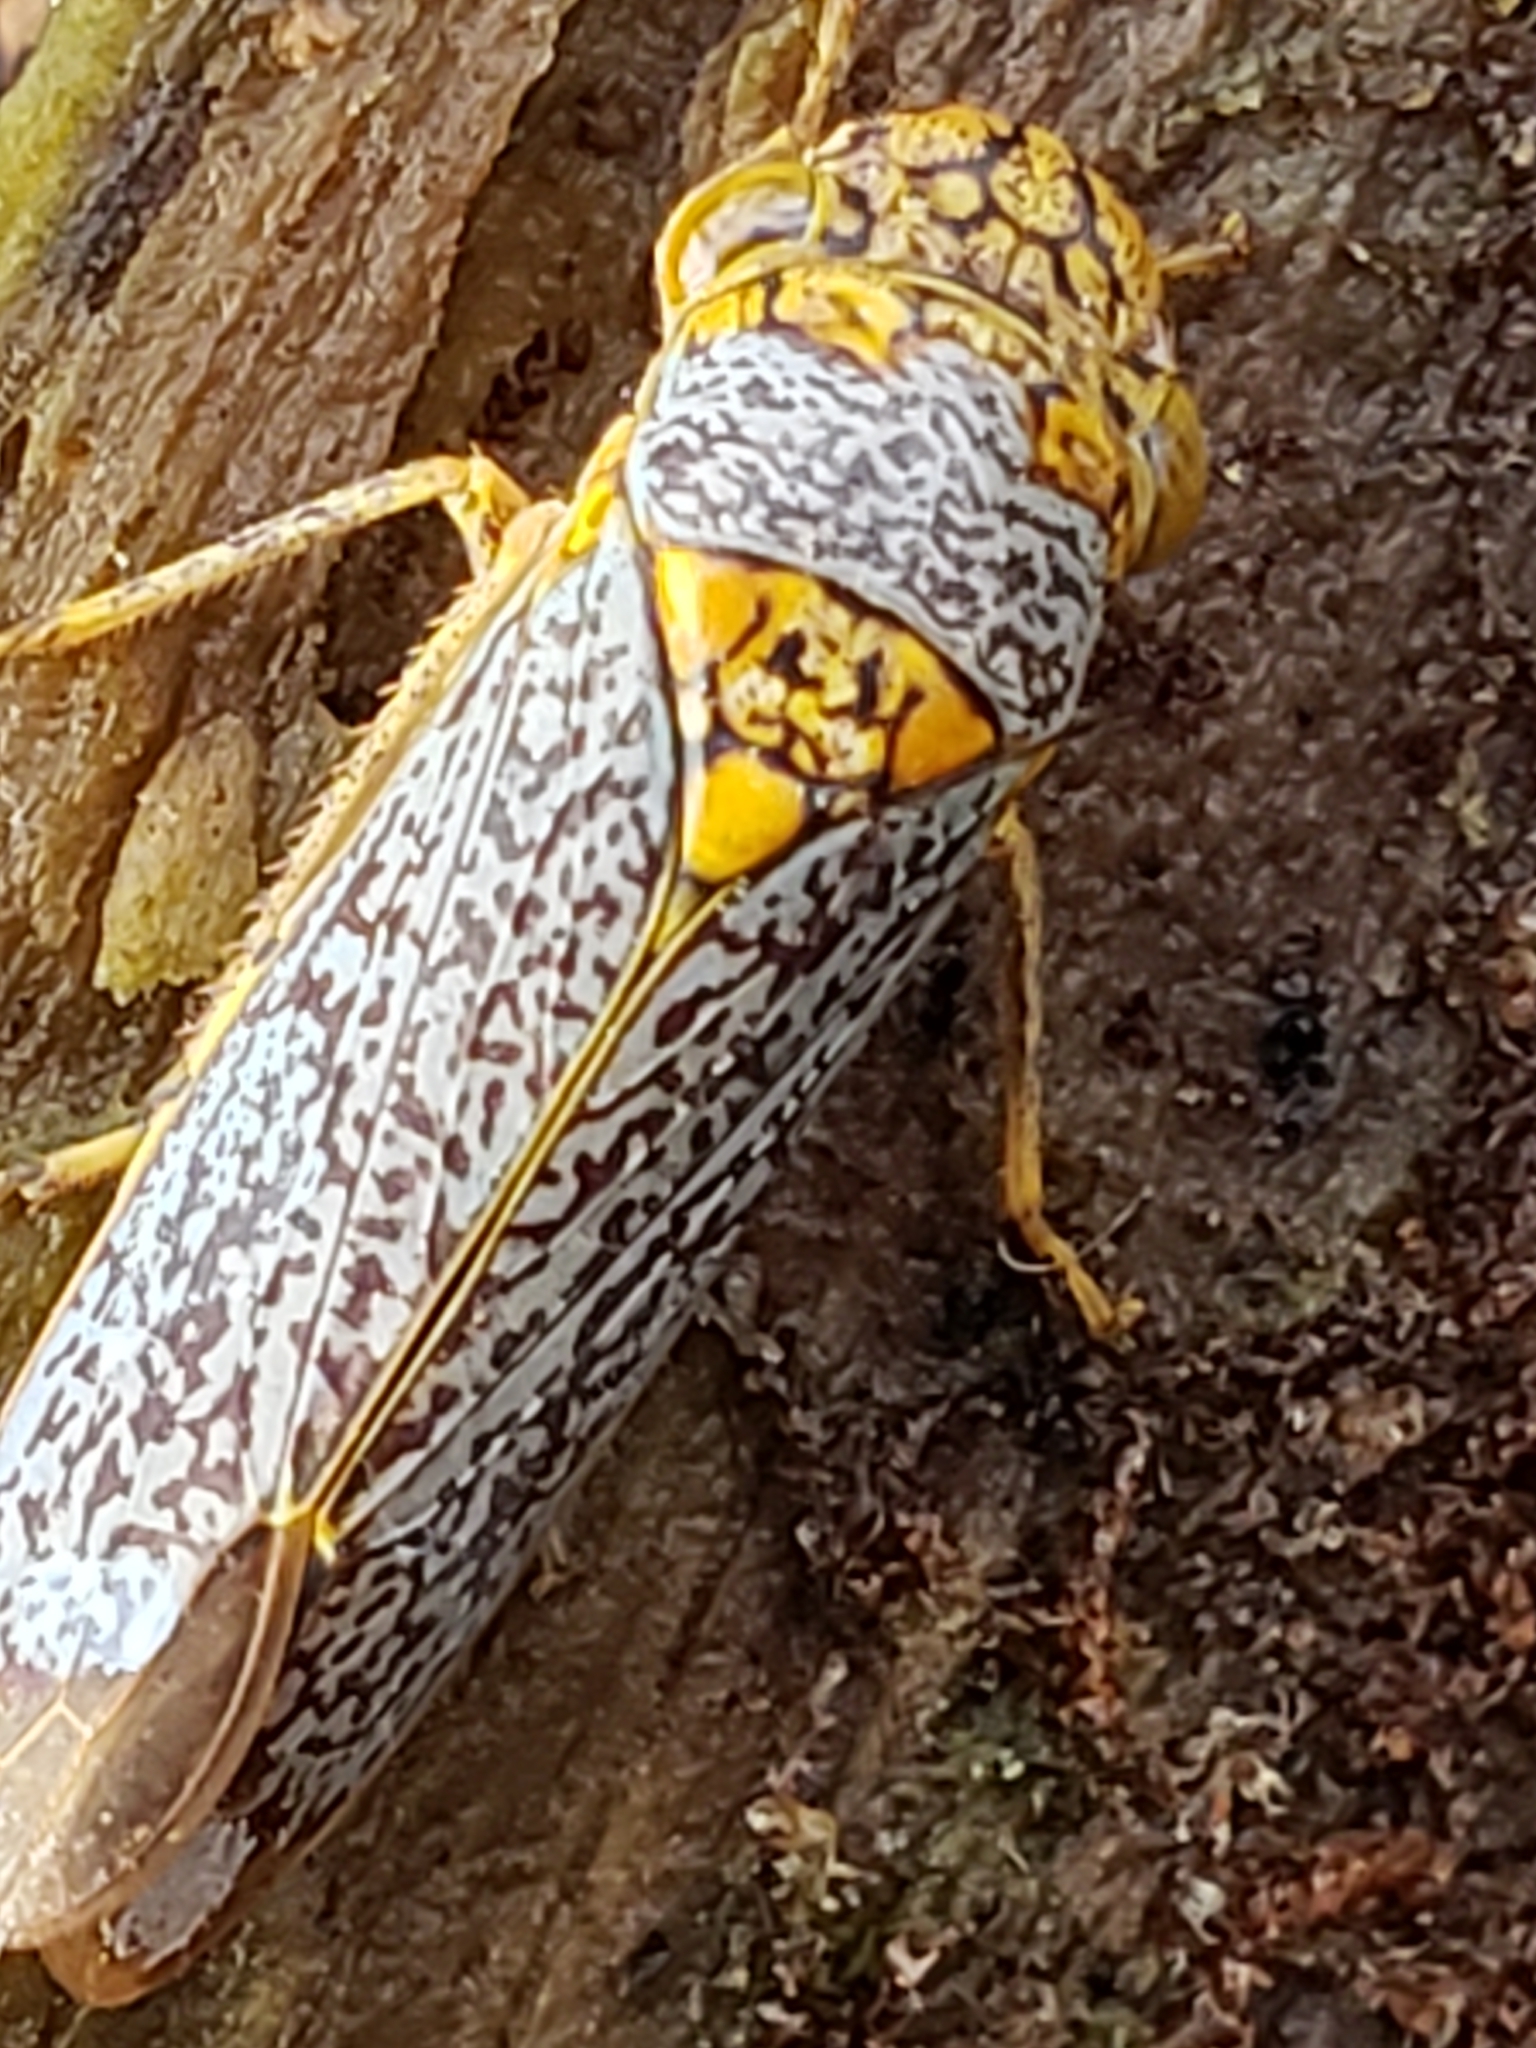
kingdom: Animalia
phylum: Arthropoda
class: Insecta
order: Hemiptera
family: Cicadellidae
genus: Oncometopia
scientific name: Oncometopia orbona
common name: Broad-headed sharpshooter
